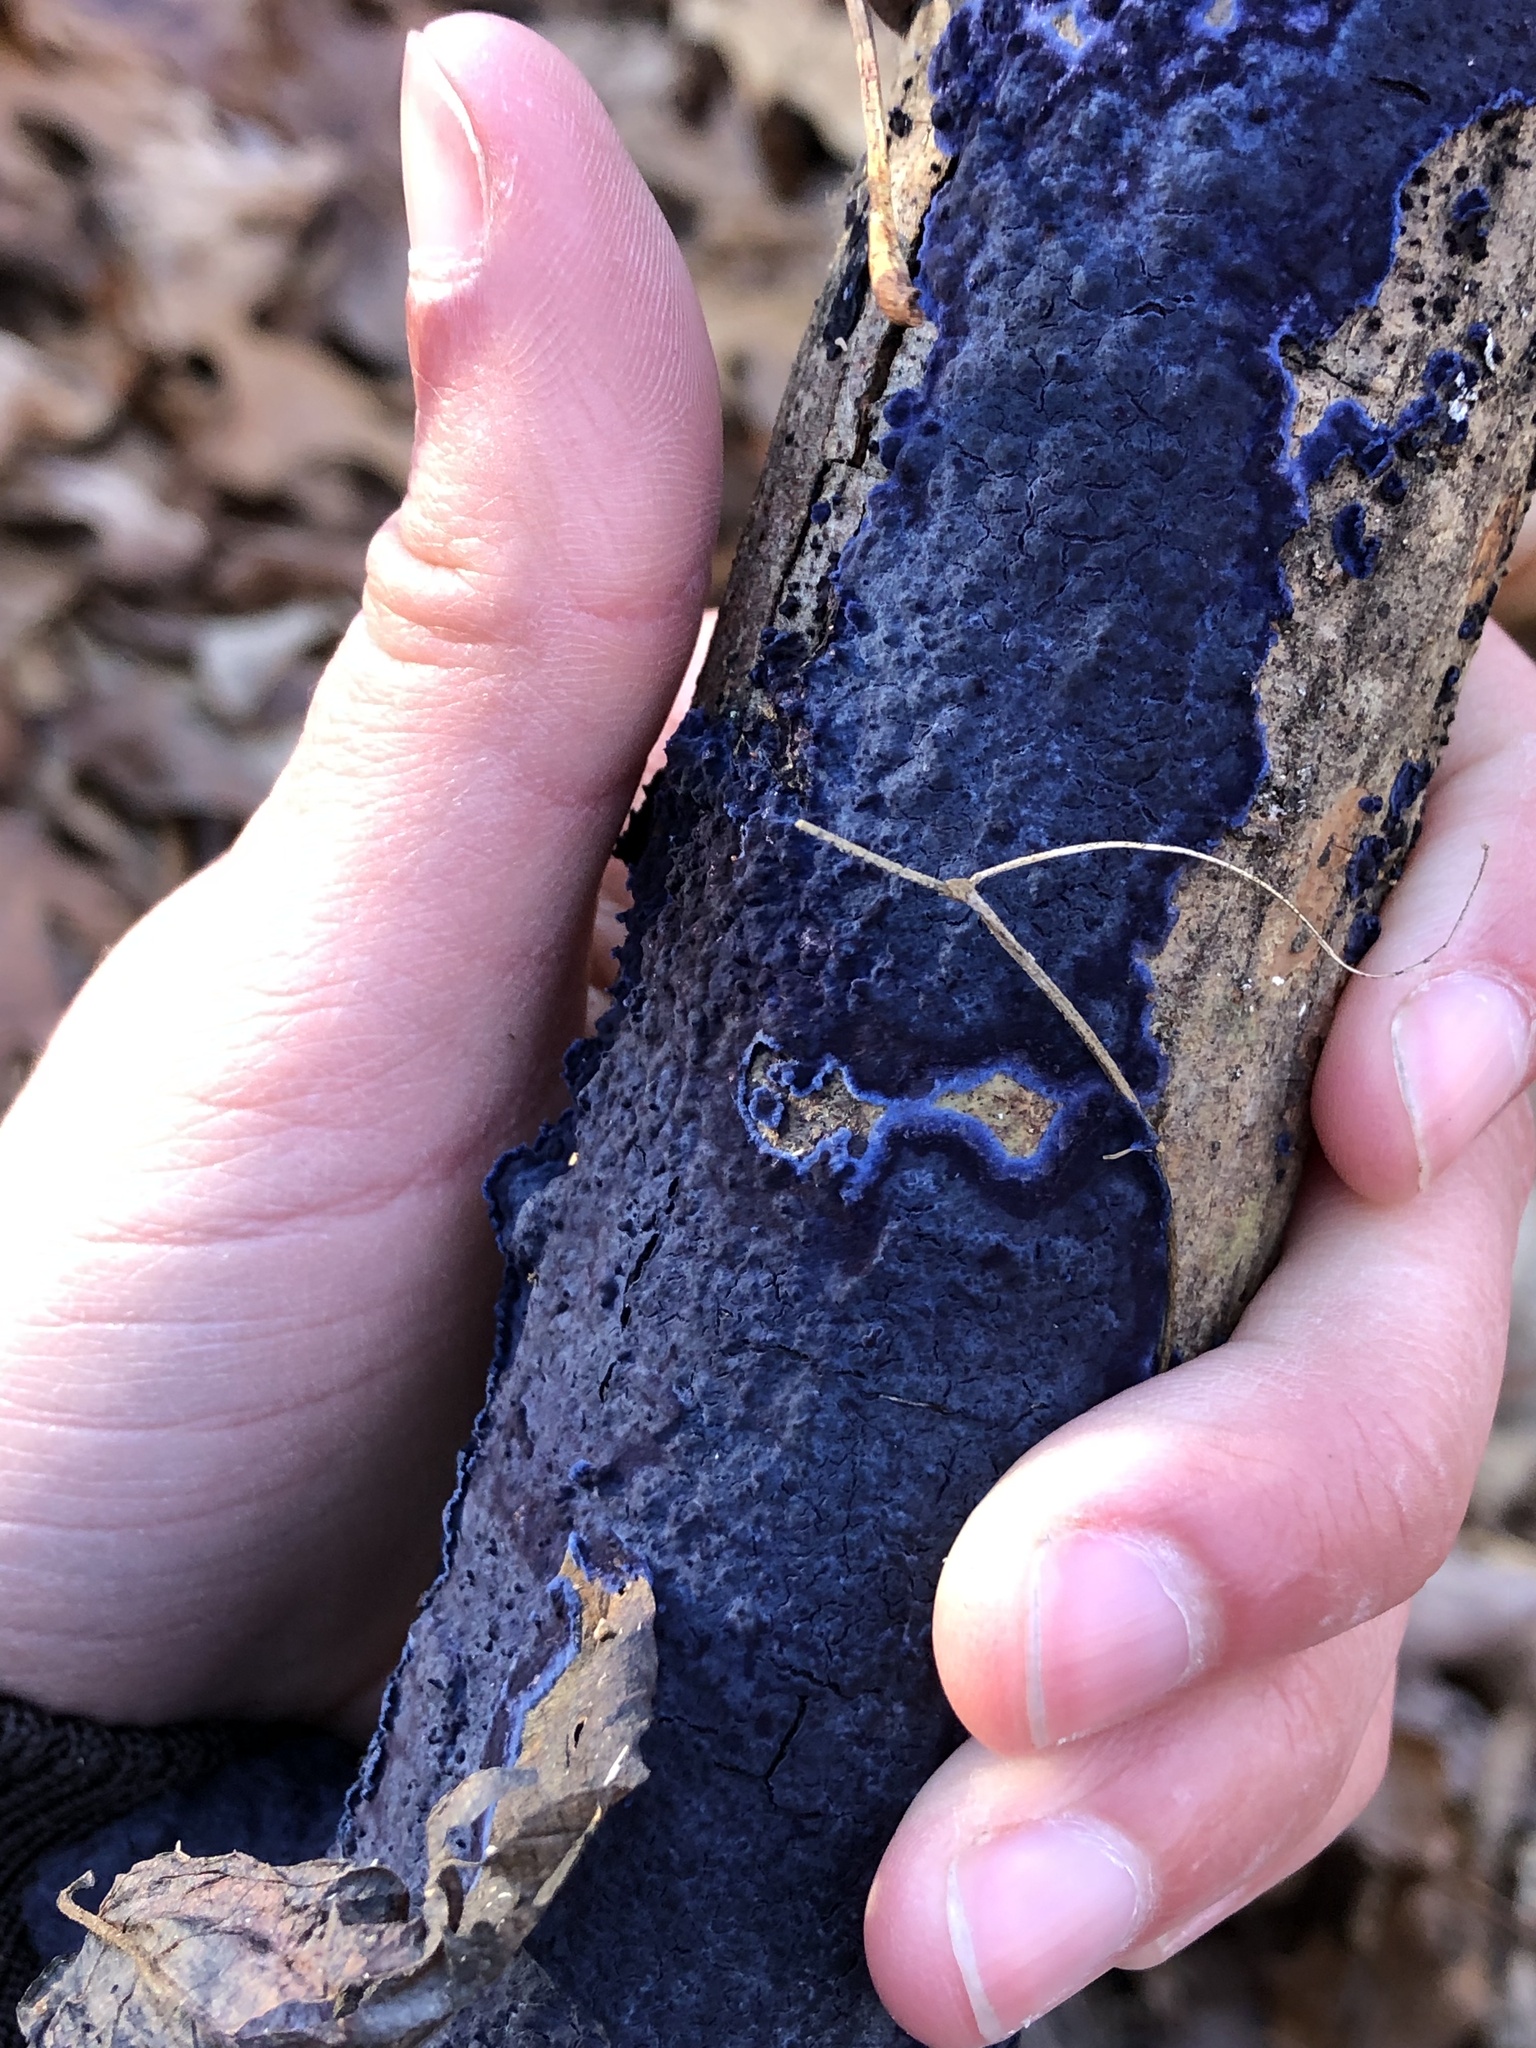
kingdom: Fungi
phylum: Basidiomycota
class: Agaricomycetes
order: Polyporales
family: Phanerochaetaceae
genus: Terana
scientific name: Terana coerulea
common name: Cobalt crust
